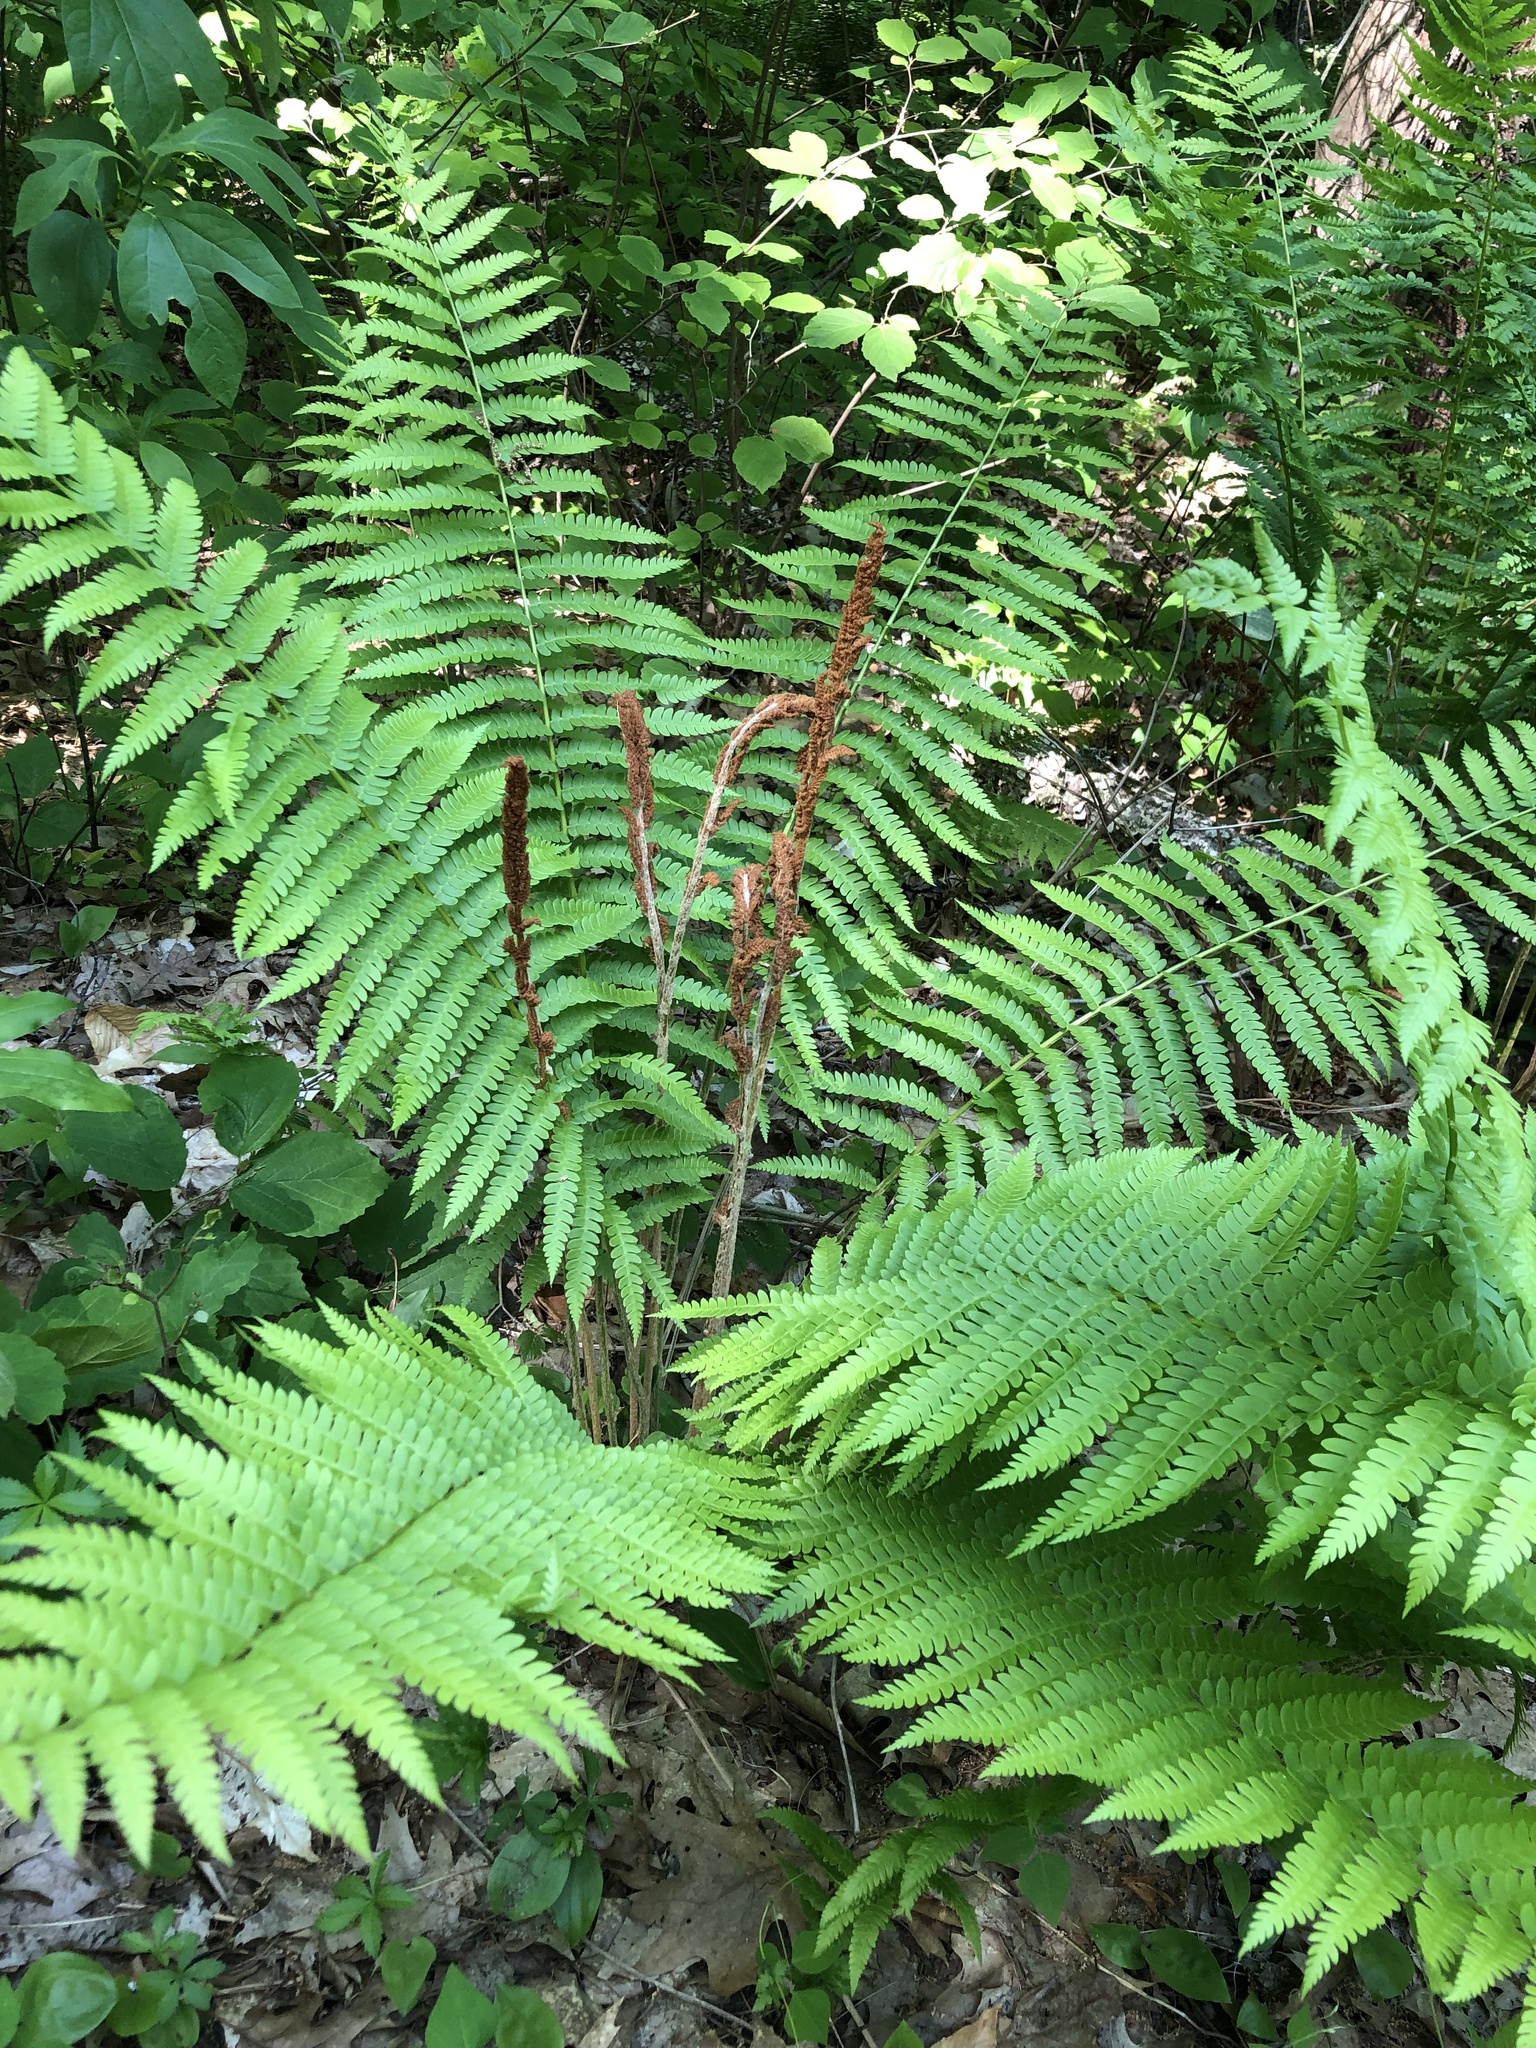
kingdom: Plantae
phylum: Tracheophyta
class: Polypodiopsida
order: Osmundales
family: Osmundaceae
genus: Osmundastrum
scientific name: Osmundastrum cinnamomeum
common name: Cinnamon fern
